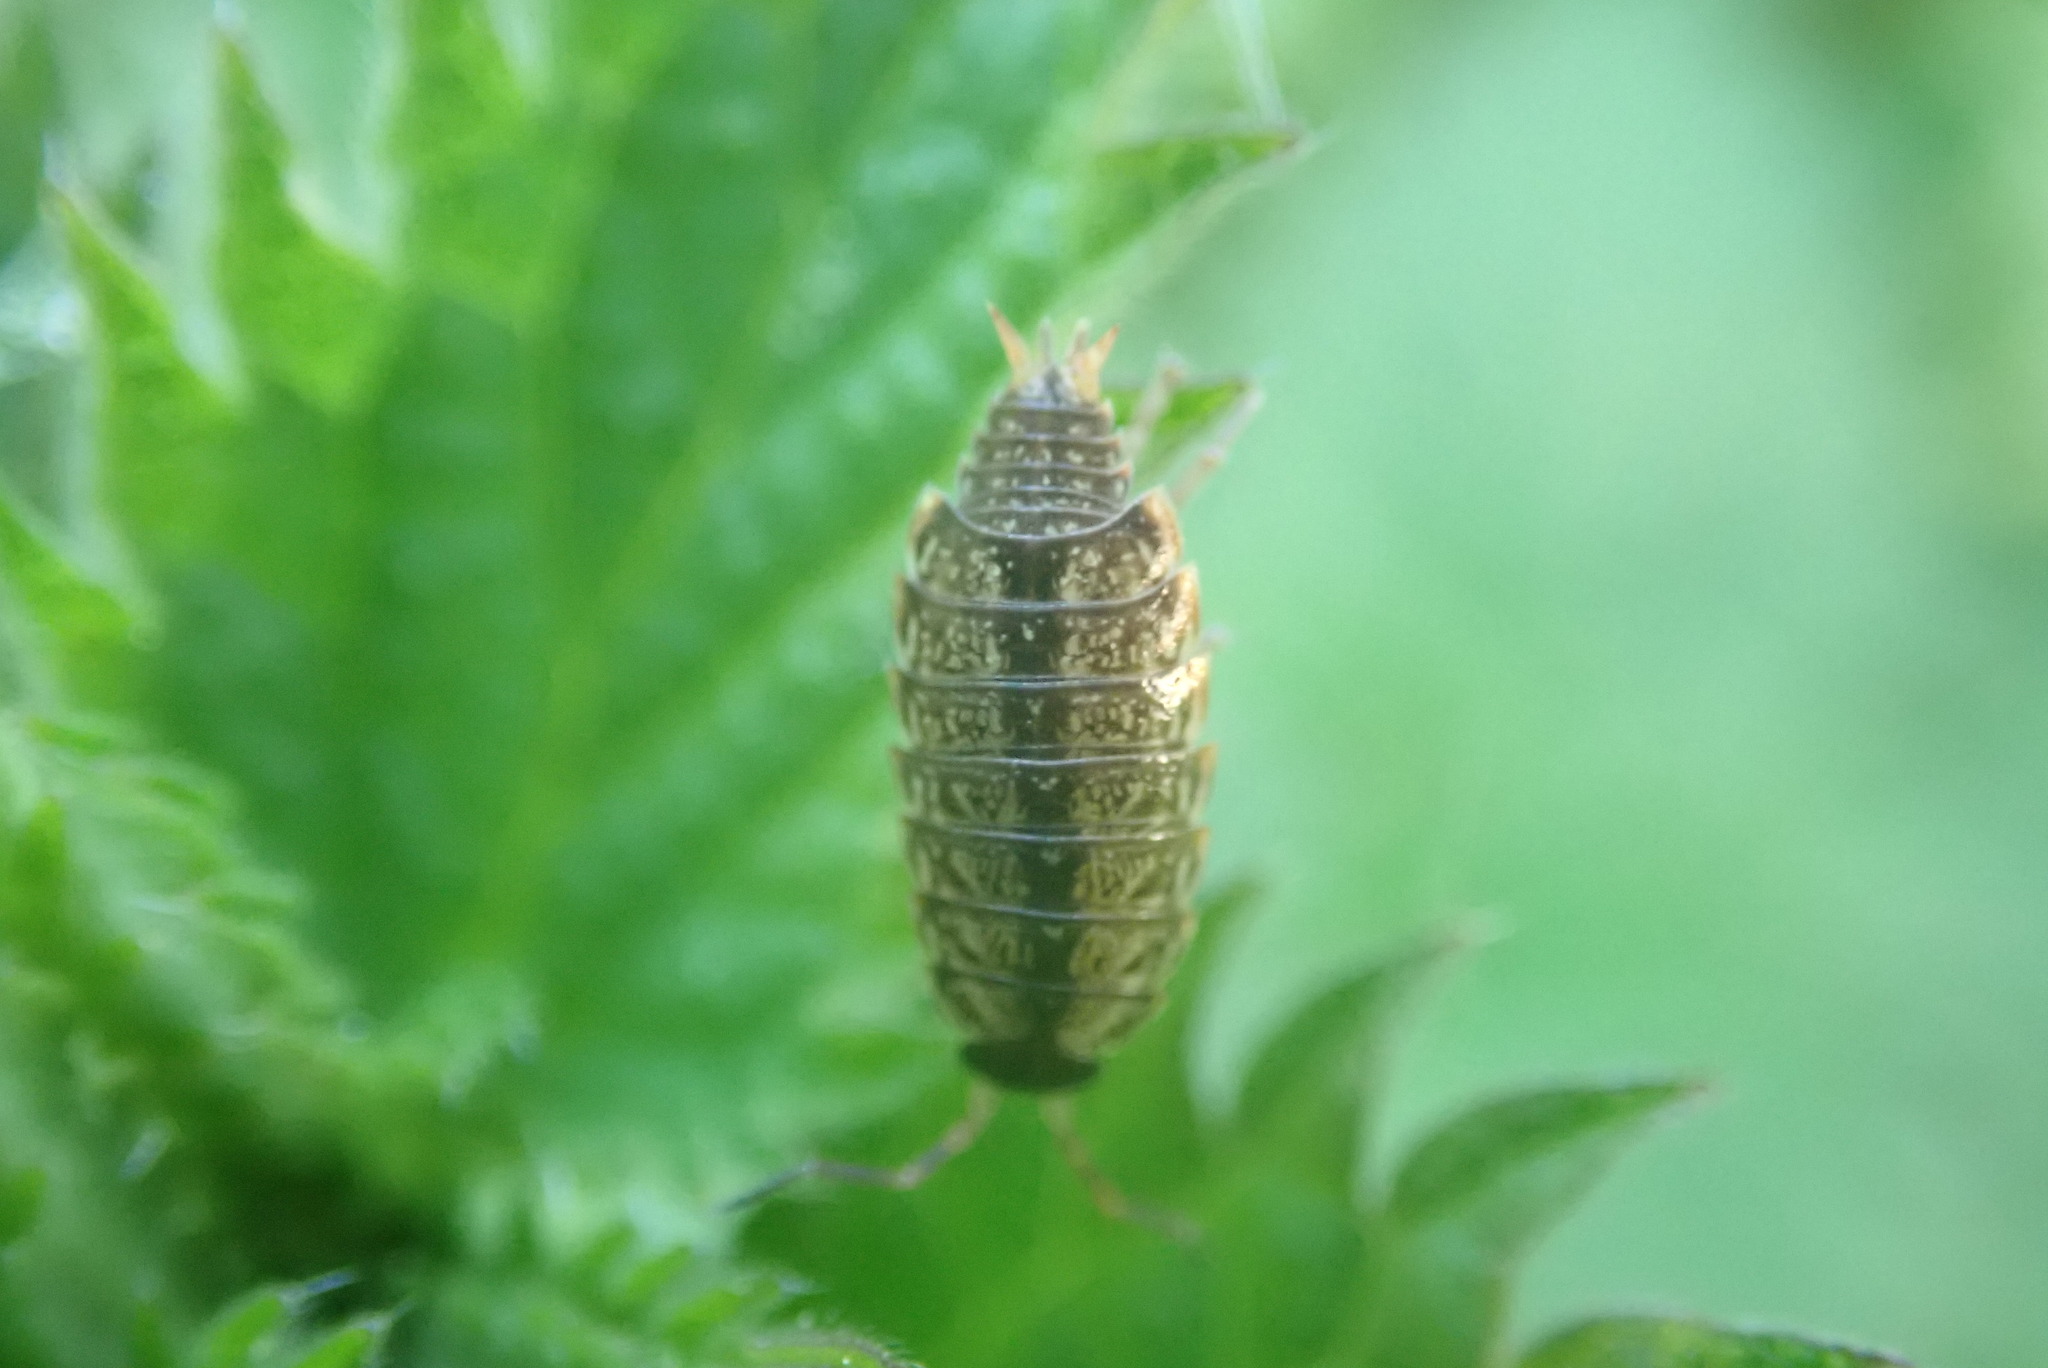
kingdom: Animalia
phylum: Arthropoda
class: Malacostraca
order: Isopoda
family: Philosciidae
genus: Philoscia
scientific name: Philoscia muscorum
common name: Common striped woodlouse
